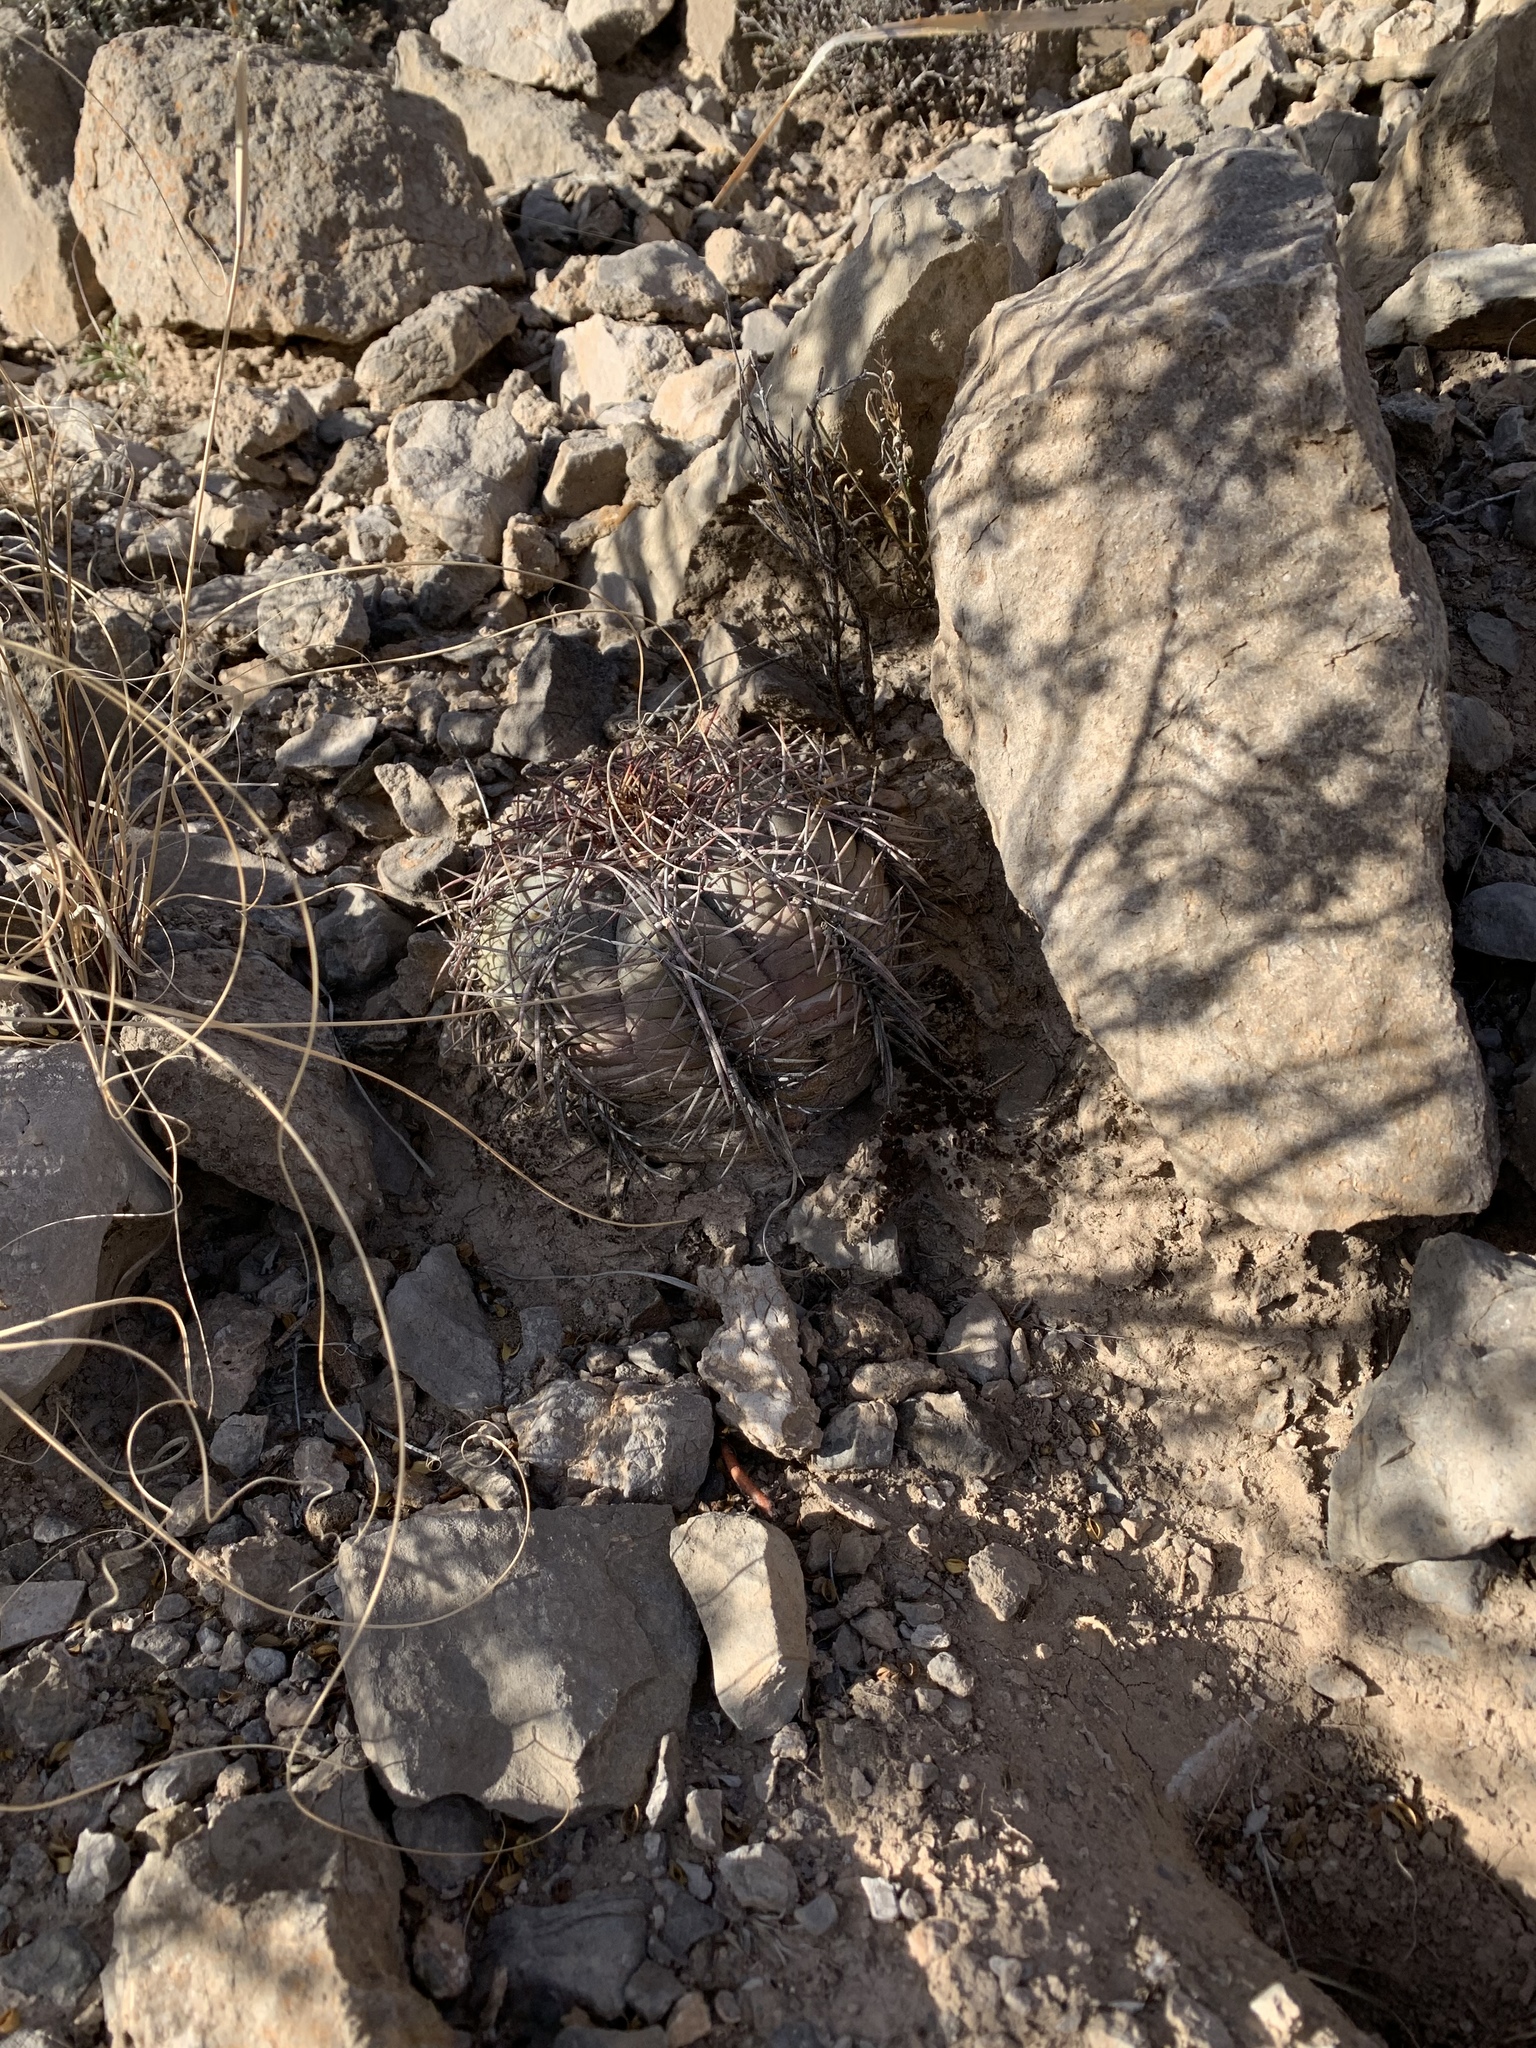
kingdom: Plantae
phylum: Tracheophyta
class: Magnoliopsida
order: Caryophyllales
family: Cactaceae
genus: Echinocactus
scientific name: Echinocactus horizonthalonius
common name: Devilshead
